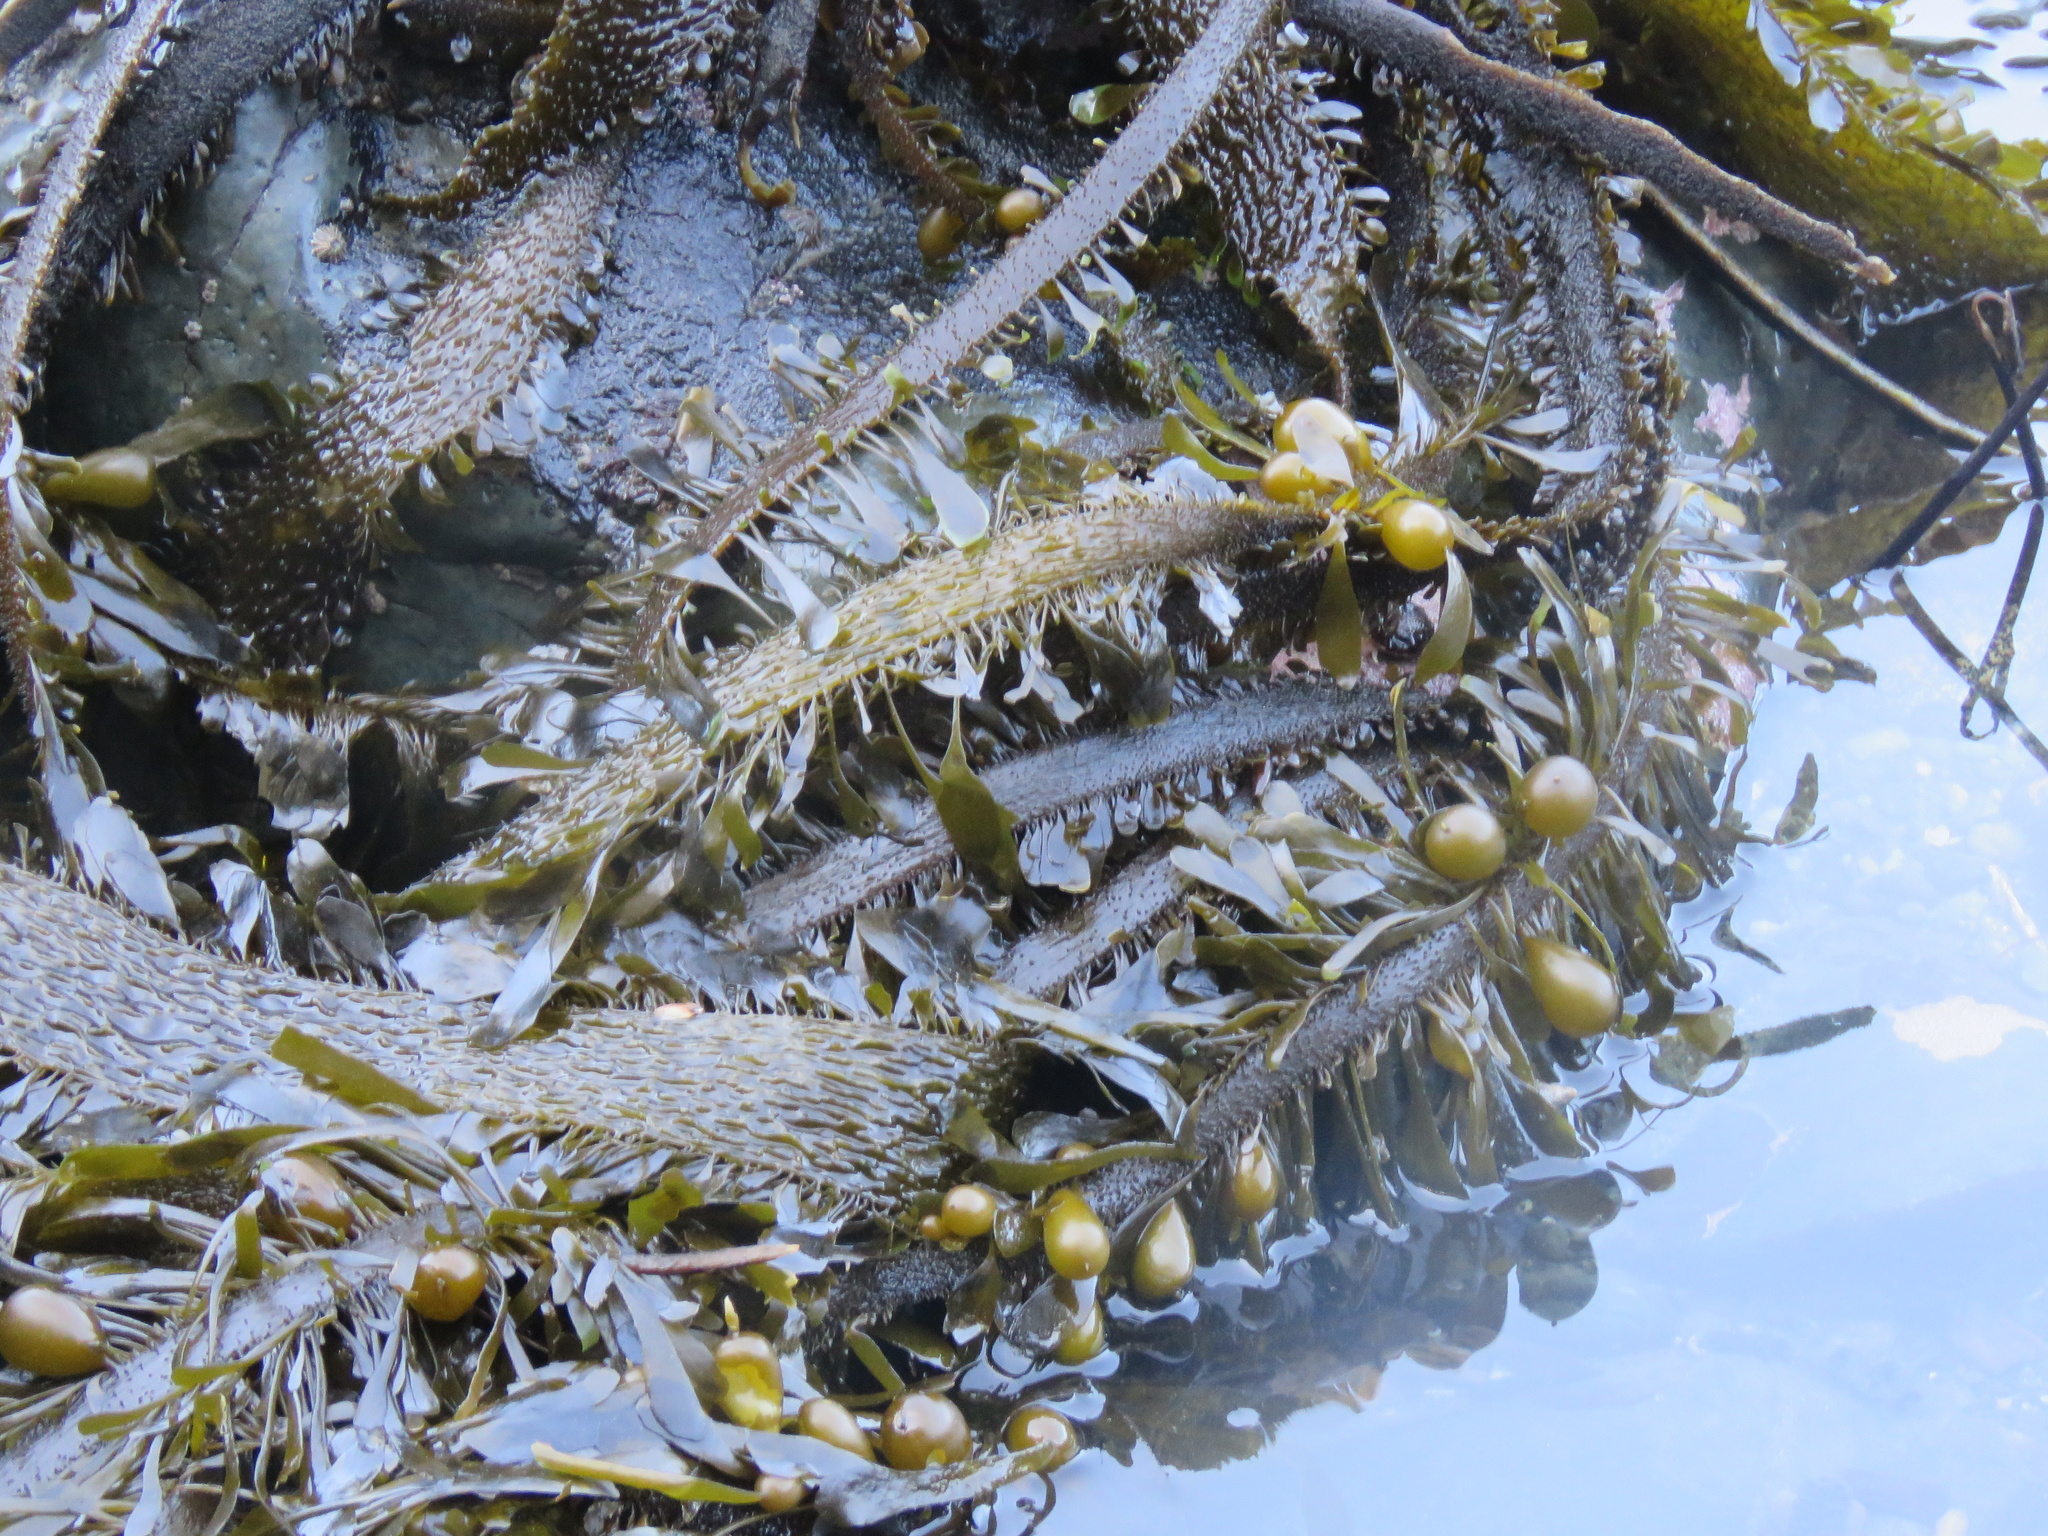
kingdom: Chromista
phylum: Ochrophyta
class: Phaeophyceae
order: Laminariales
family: Lessoniaceae
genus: Egregia
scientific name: Egregia menziesii
